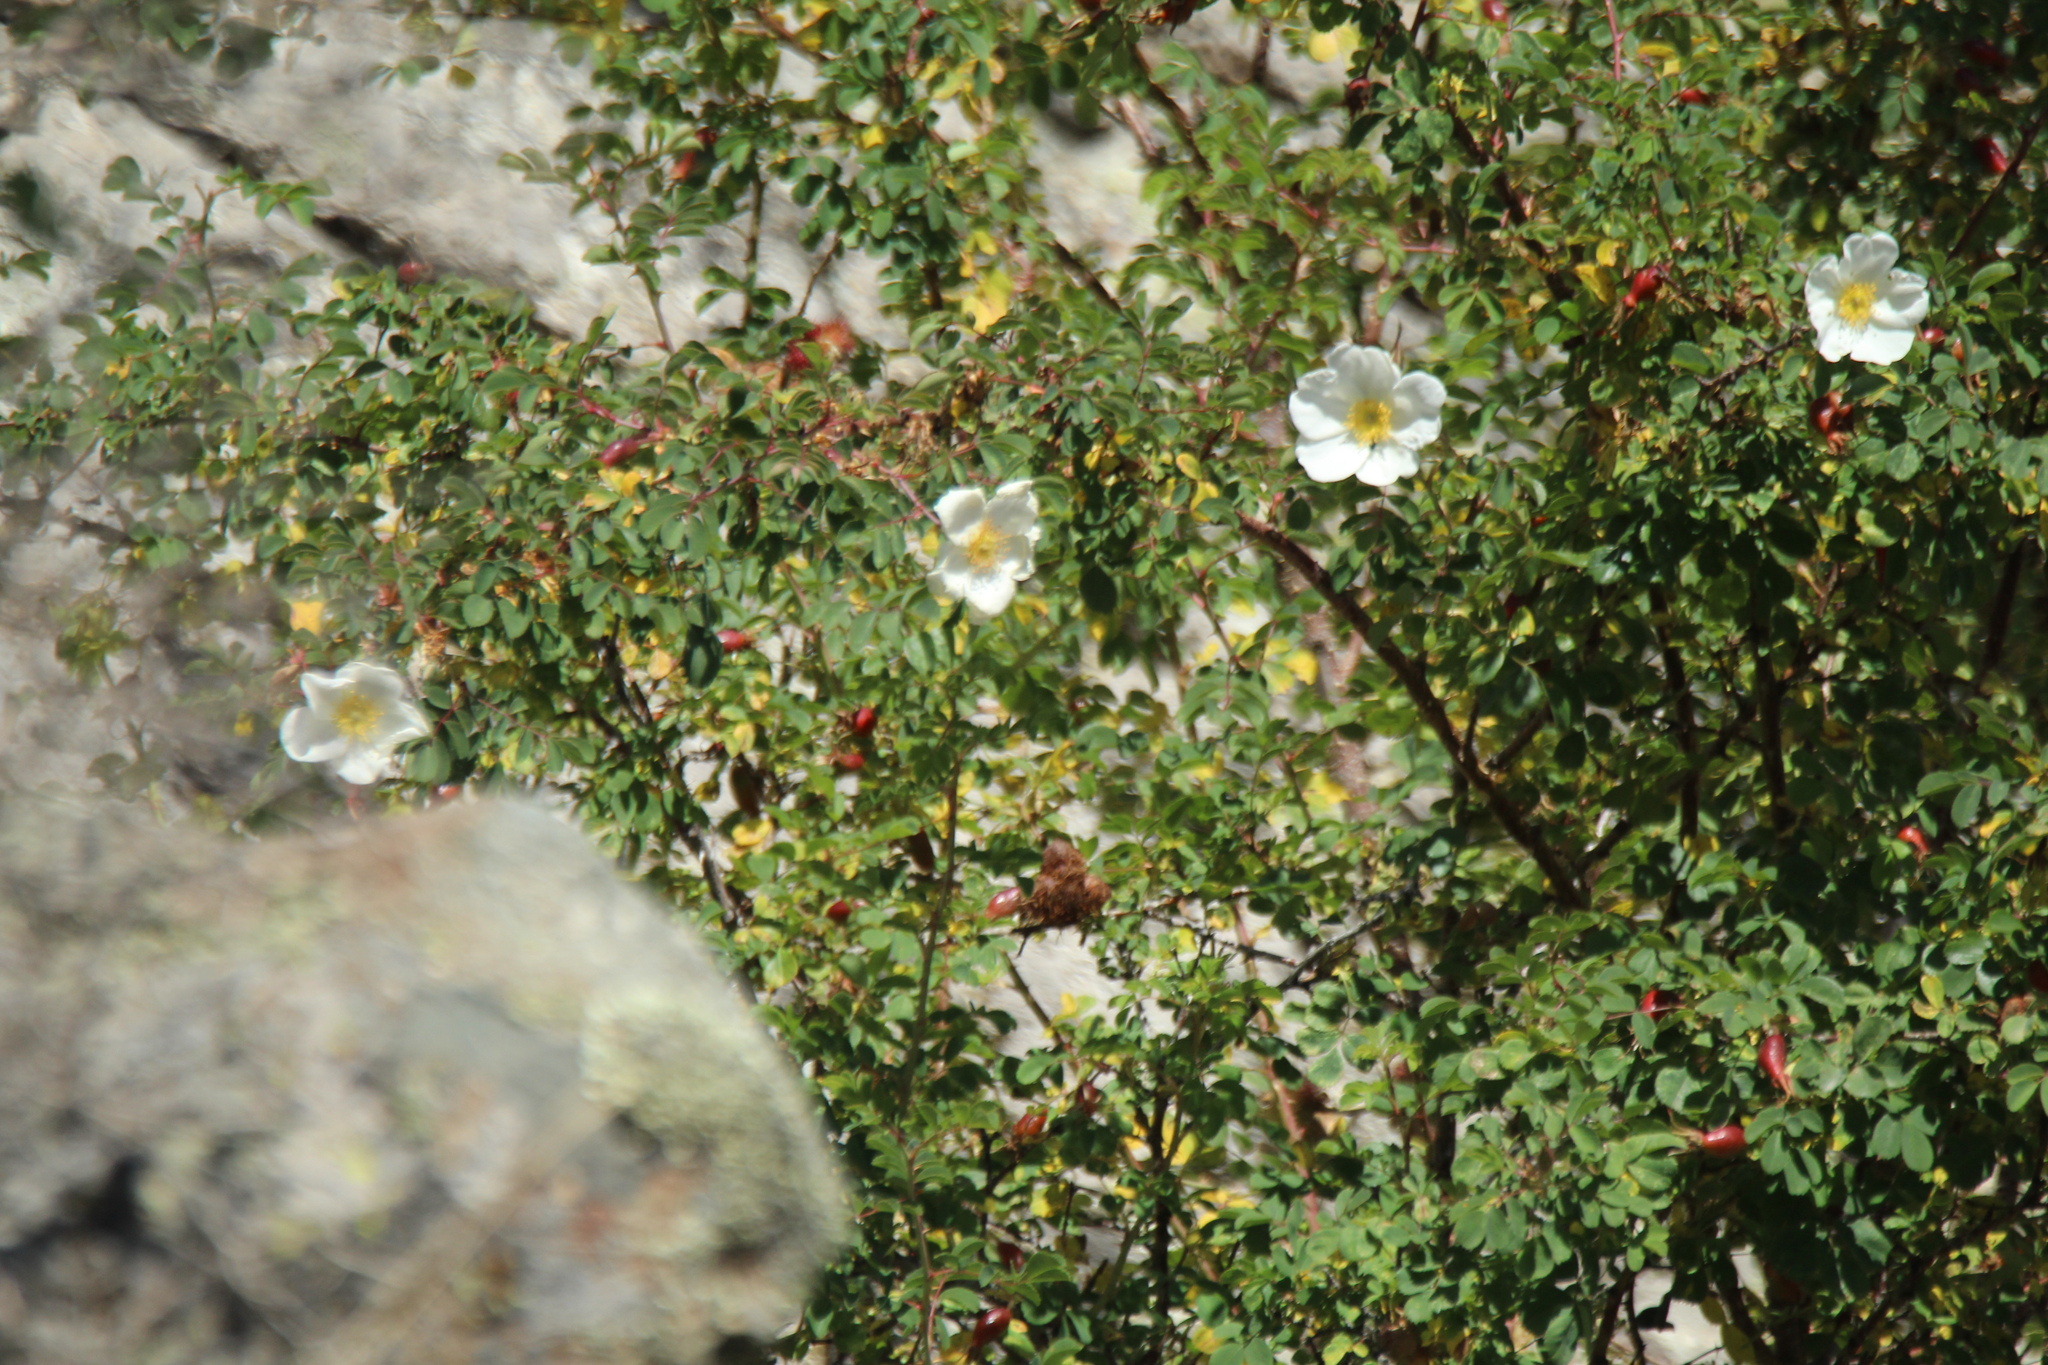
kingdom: Plantae
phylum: Tracheophyta
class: Magnoliopsida
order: Rosales
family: Rosaceae
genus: Rosa
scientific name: Rosa alberti
